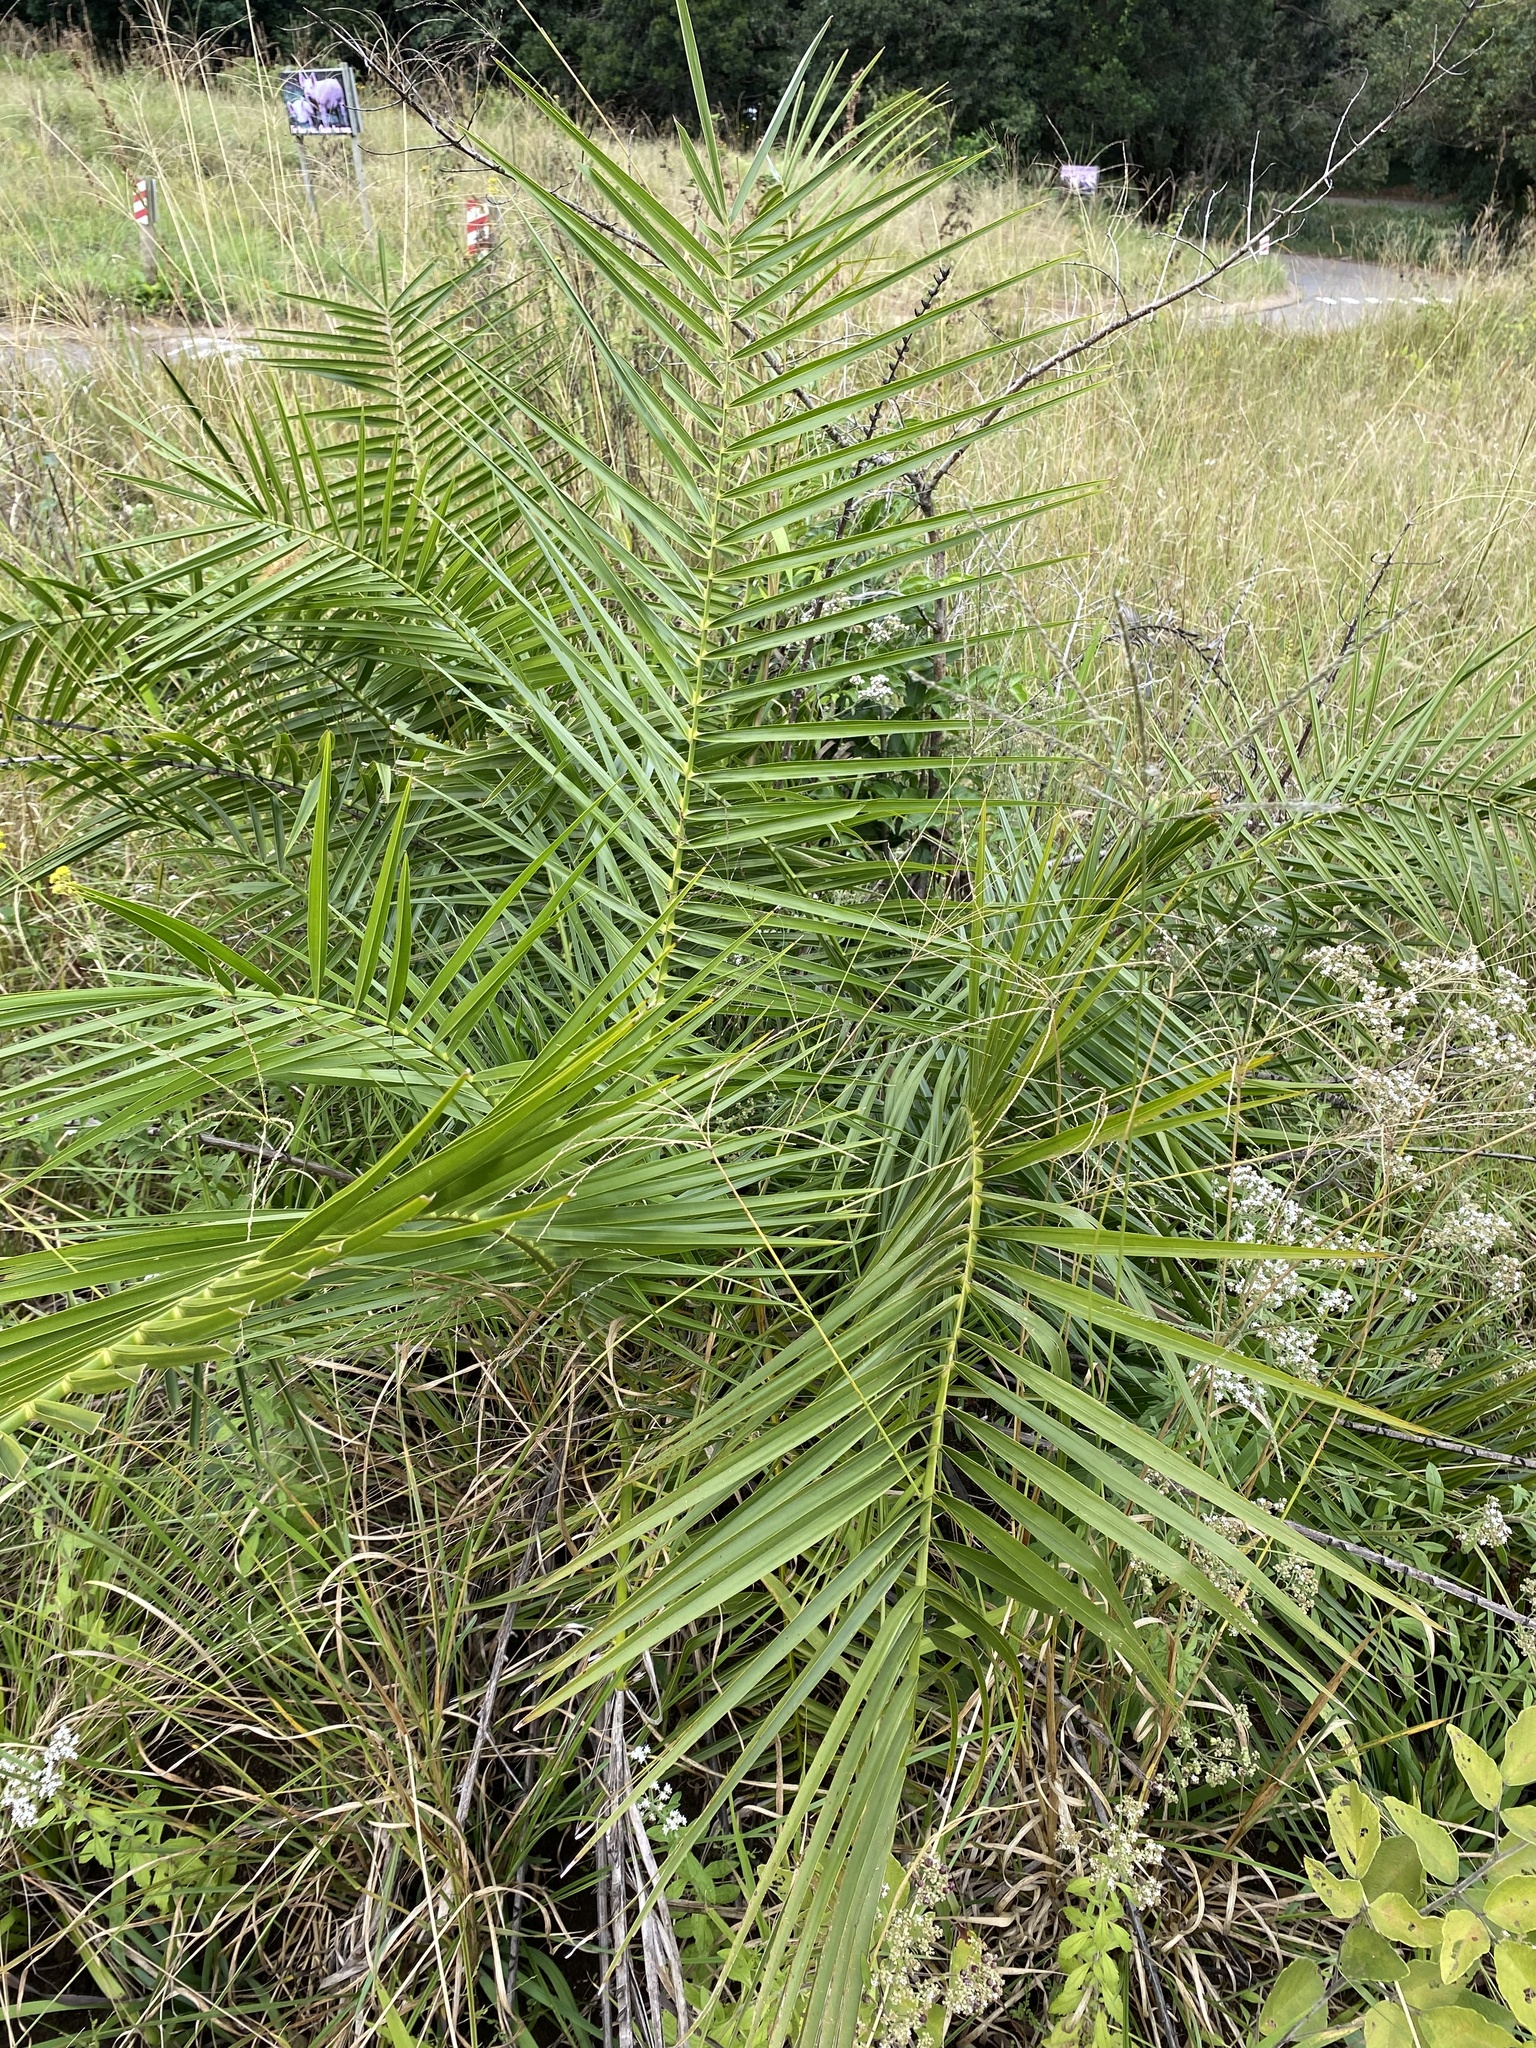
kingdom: Plantae
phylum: Tracheophyta
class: Liliopsida
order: Arecales
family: Arecaceae
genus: Phoenix
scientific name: Phoenix reclinata
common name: Senegal date palm
